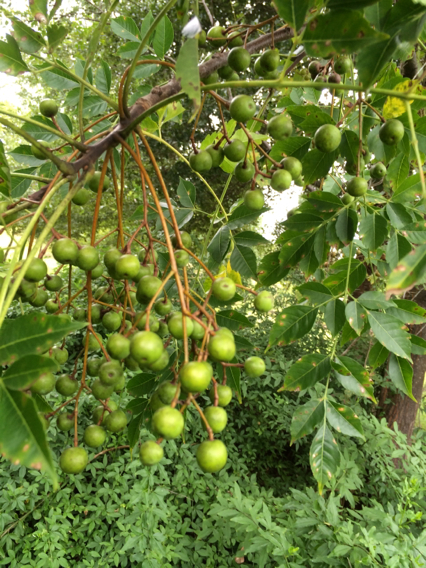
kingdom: Plantae
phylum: Tracheophyta
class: Magnoliopsida
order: Sapindales
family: Meliaceae
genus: Melia
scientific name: Melia azedarach
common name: Chinaberrytree
